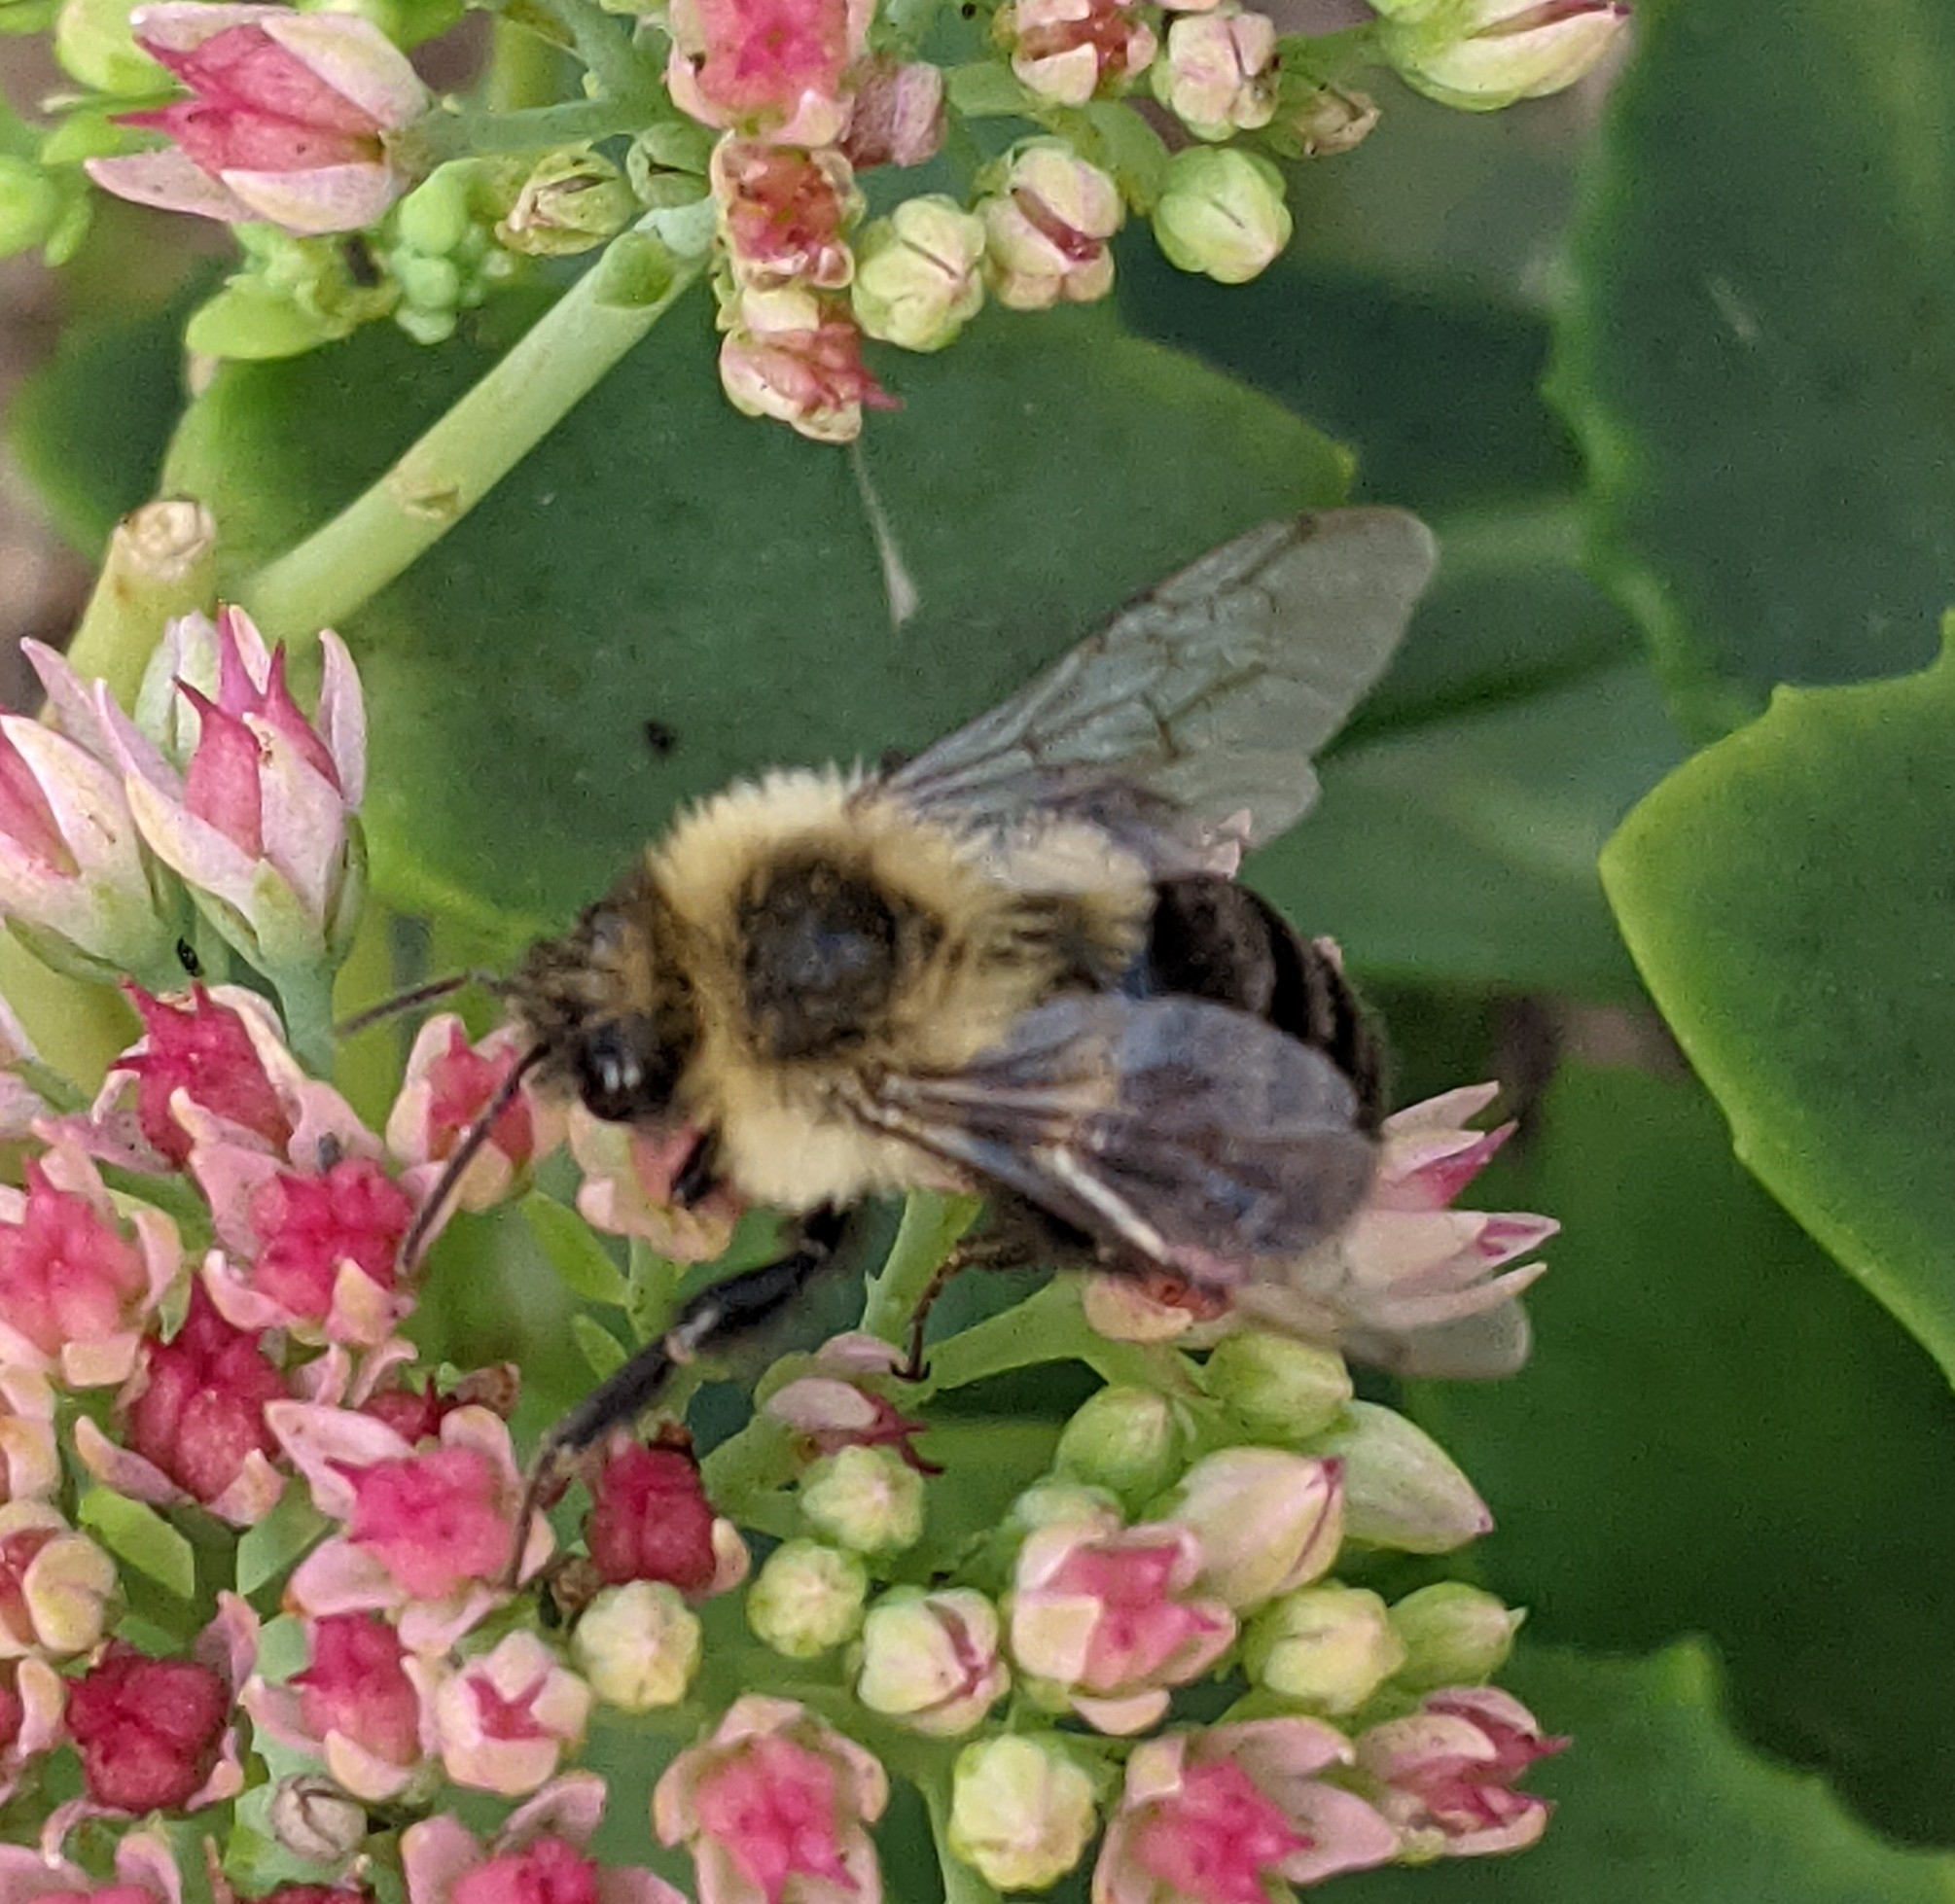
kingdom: Animalia
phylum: Arthropoda
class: Insecta
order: Hymenoptera
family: Apidae
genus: Bombus
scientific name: Bombus impatiens
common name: Common eastern bumble bee
